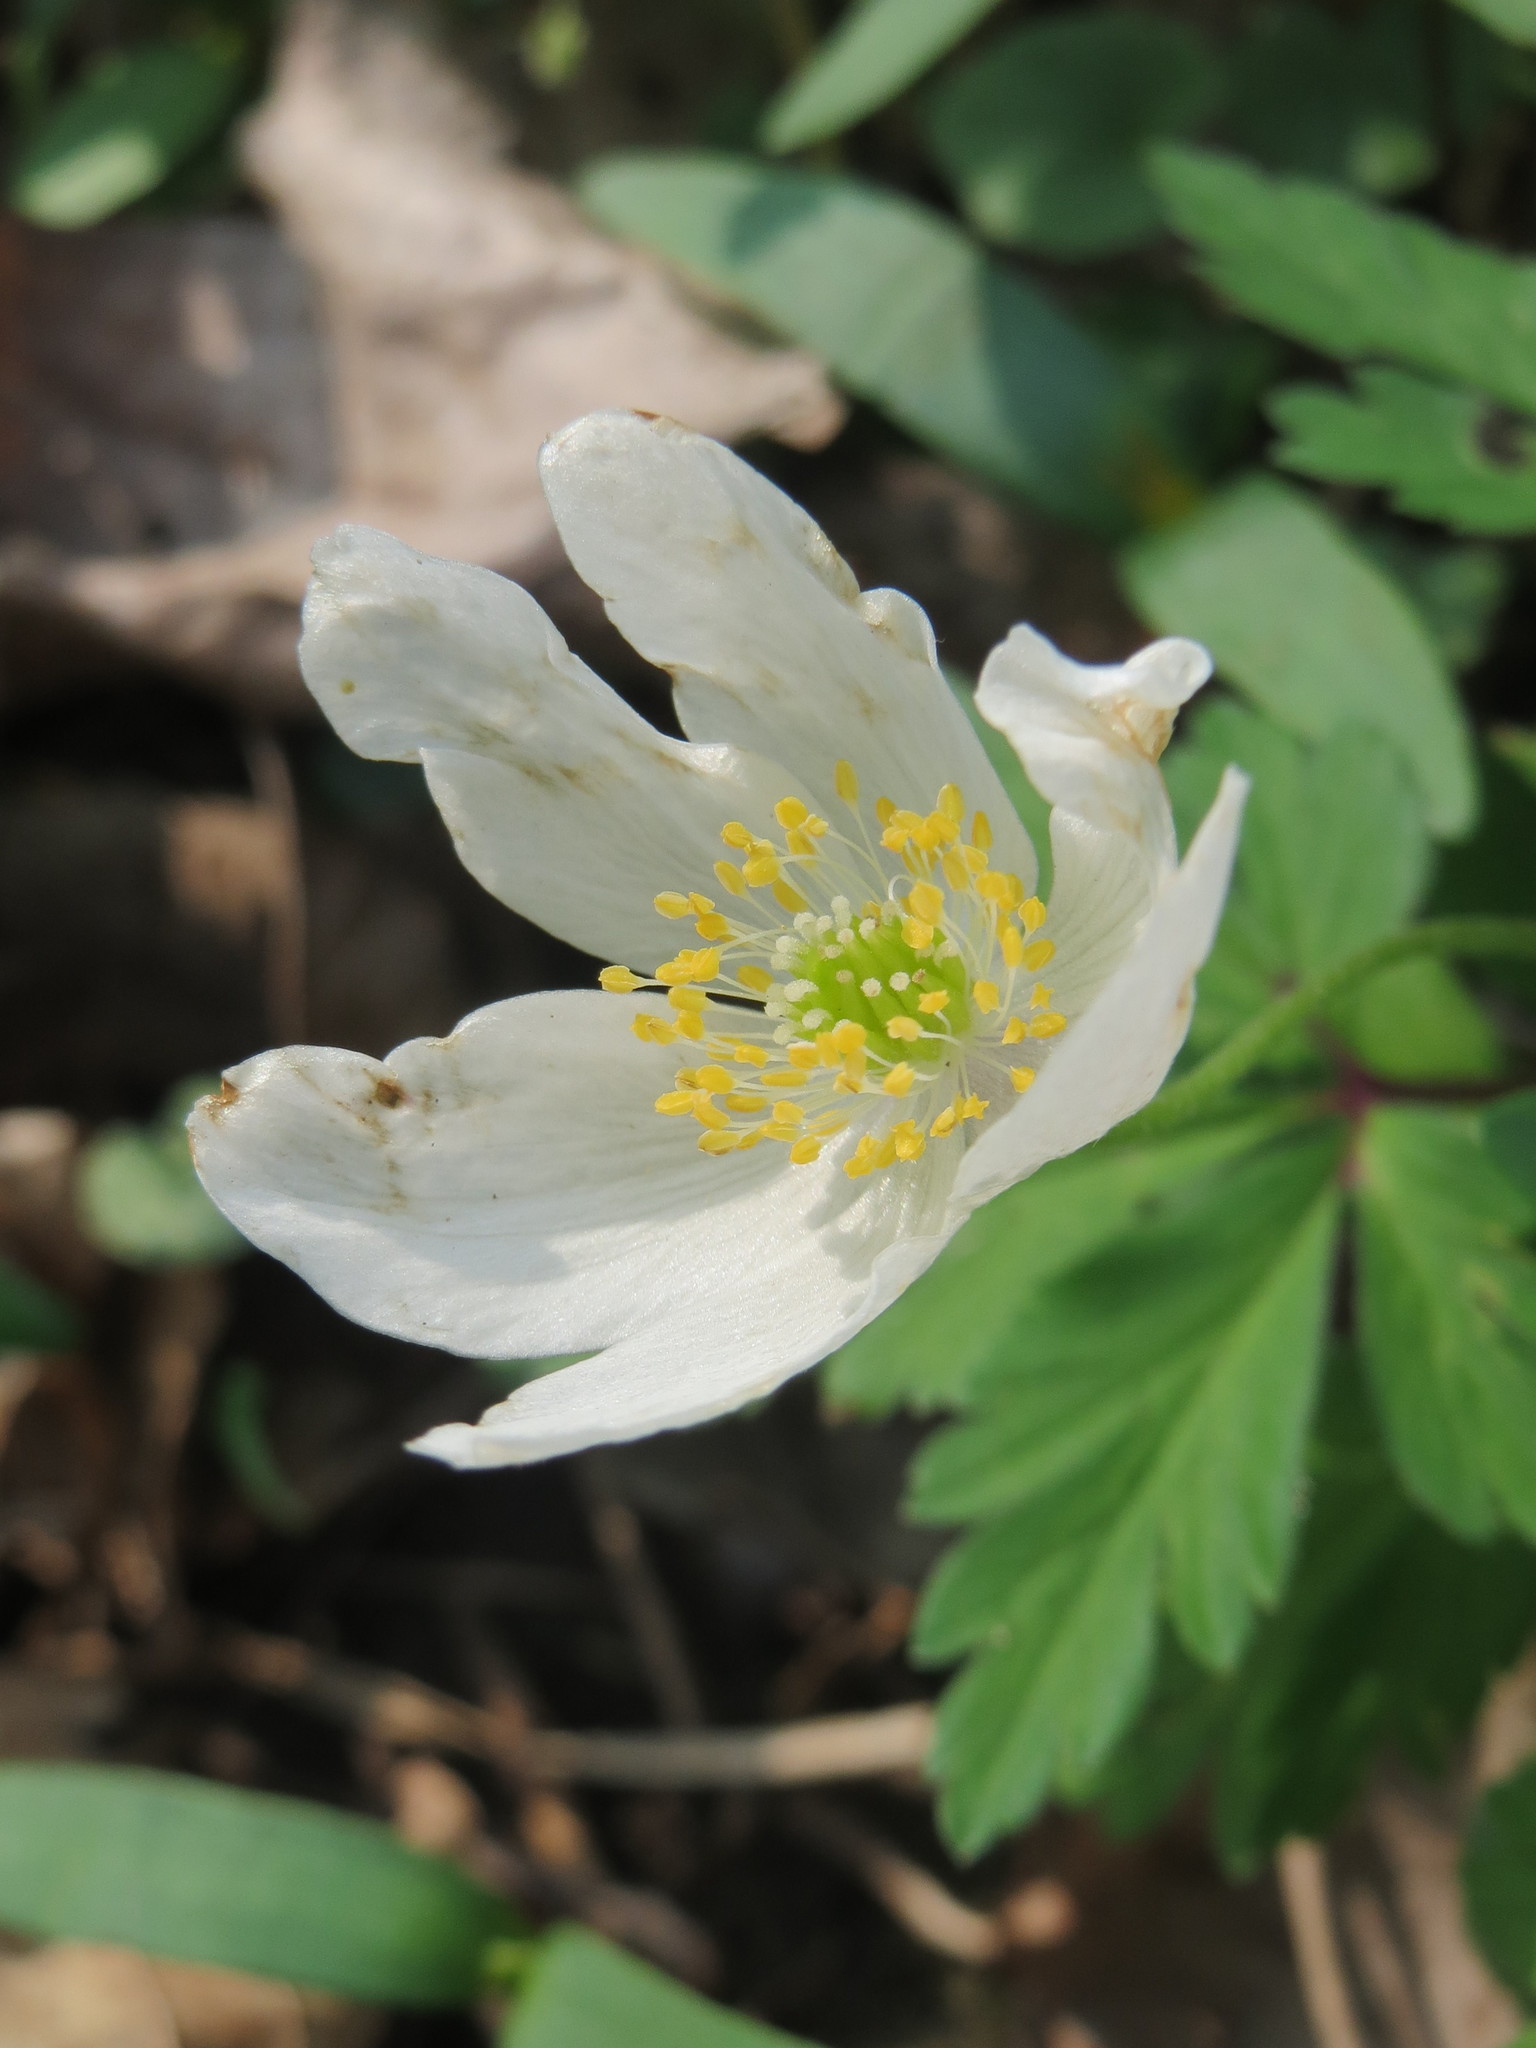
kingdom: Plantae
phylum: Tracheophyta
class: Magnoliopsida
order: Ranunculales
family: Ranunculaceae
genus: Anemone
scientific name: Anemone nemorosa
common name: Wood anemone
